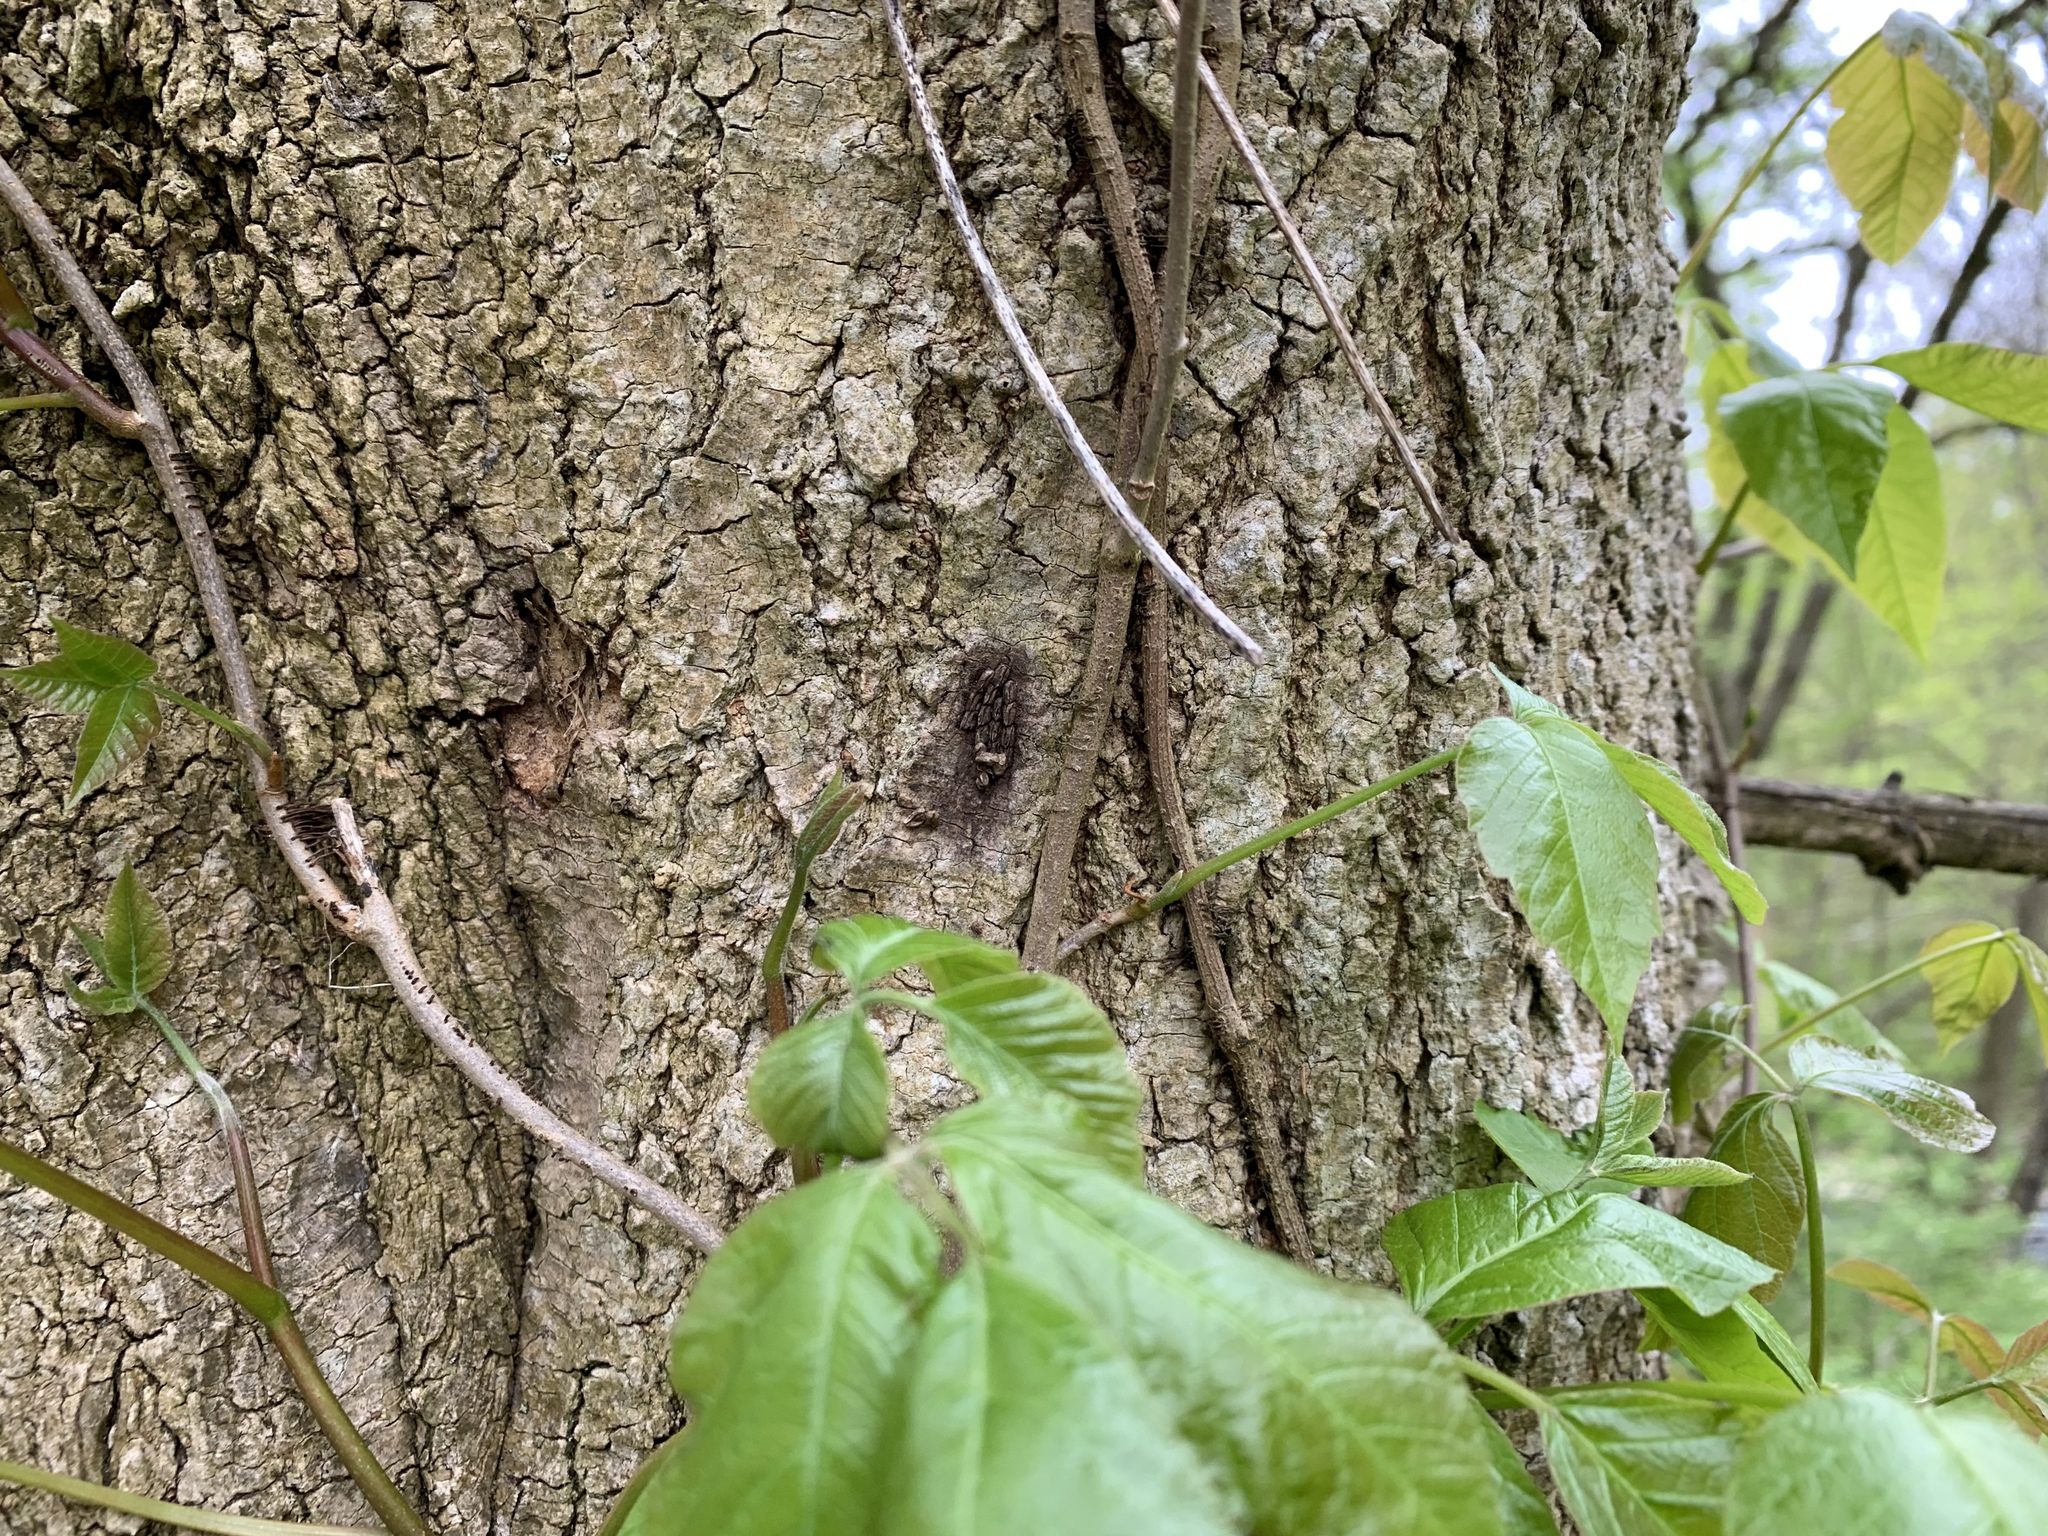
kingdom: Animalia
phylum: Arthropoda
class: Insecta
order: Hemiptera
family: Fulgoridae
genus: Lycorma
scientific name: Lycorma delicatula
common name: Spotted lanternfly
